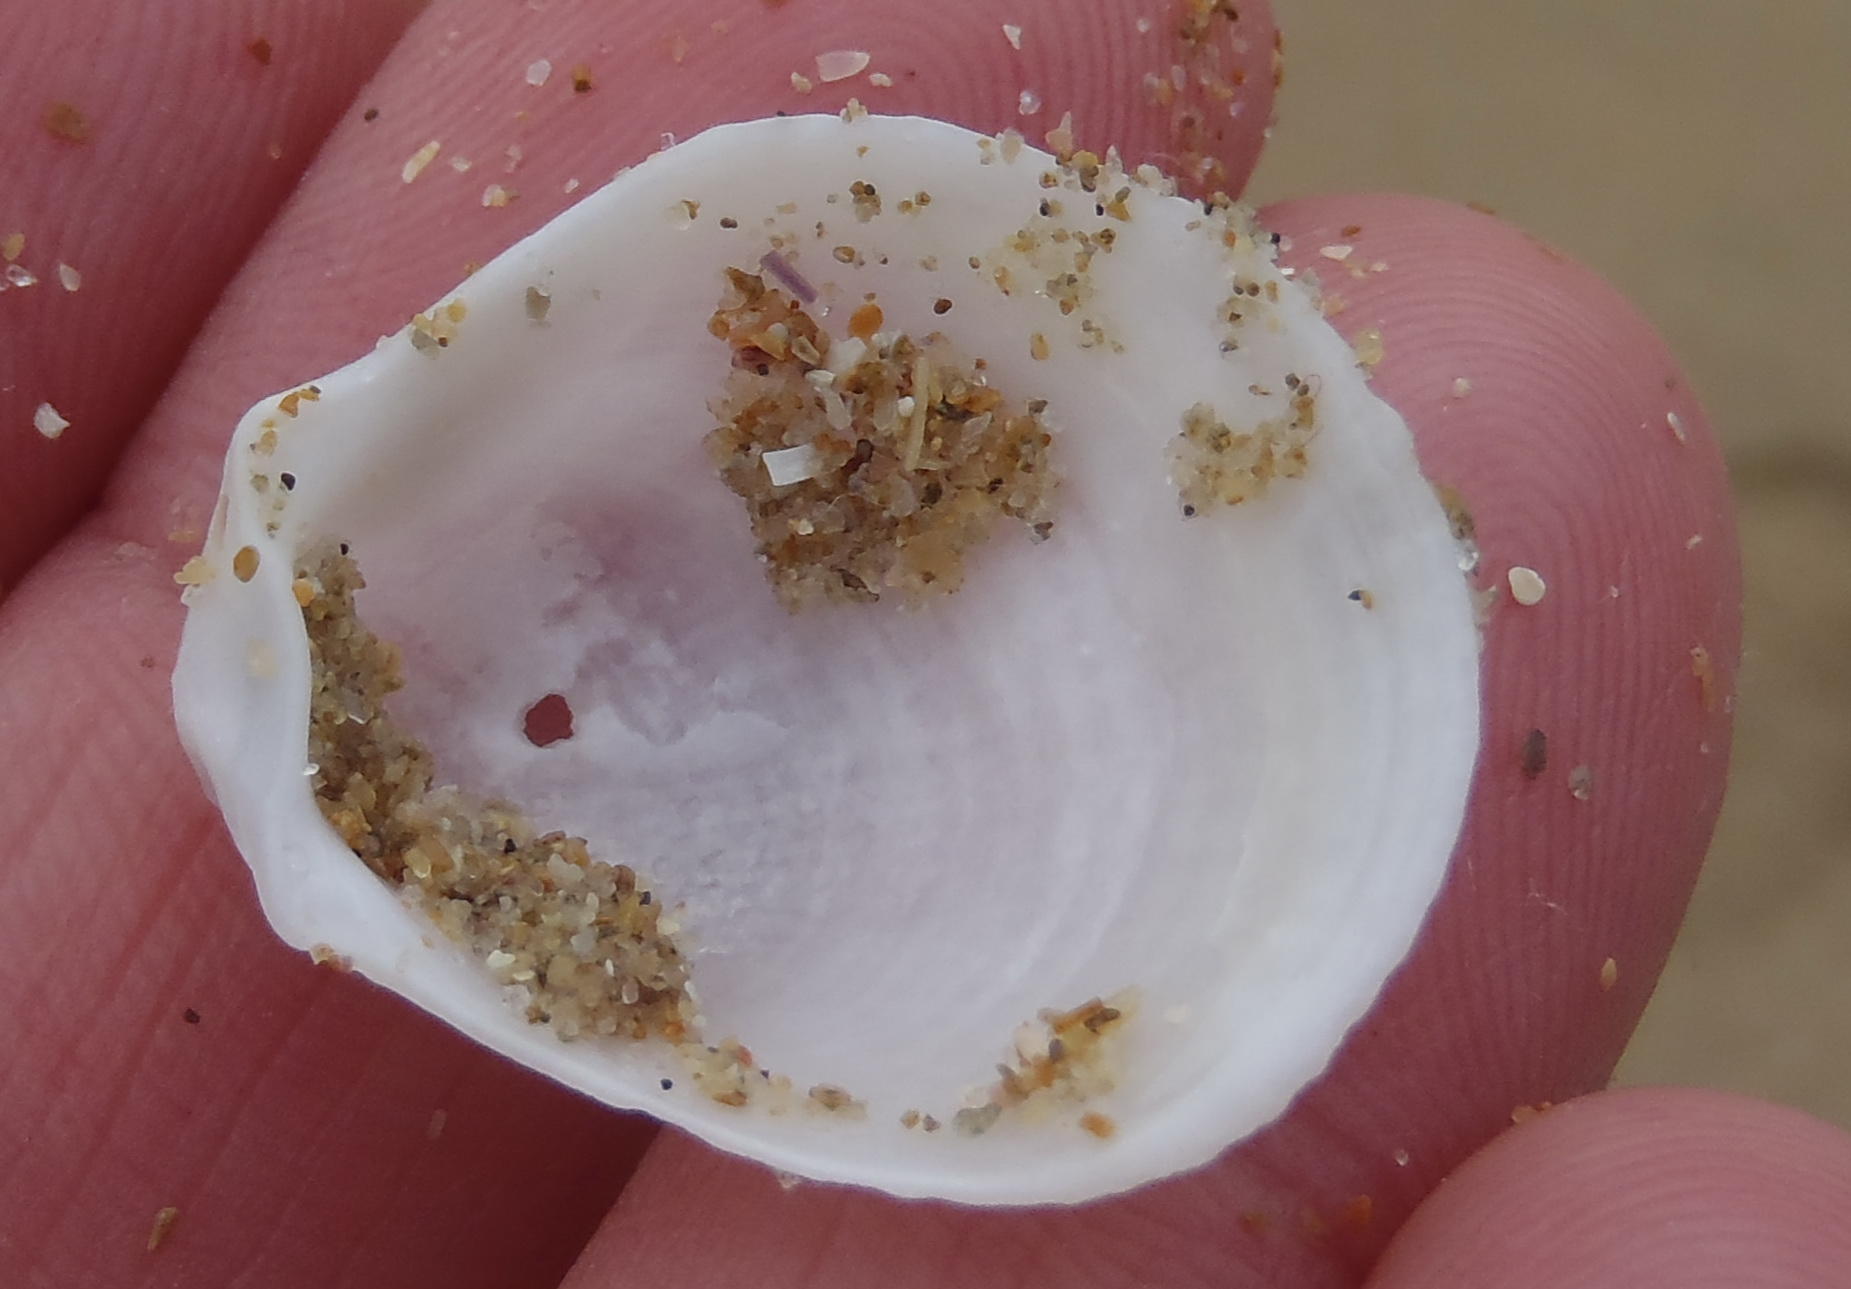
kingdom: Animalia
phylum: Mollusca
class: Bivalvia
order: Limida
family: Limidae
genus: Limaria
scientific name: Limaria tuberculata
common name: File shell
